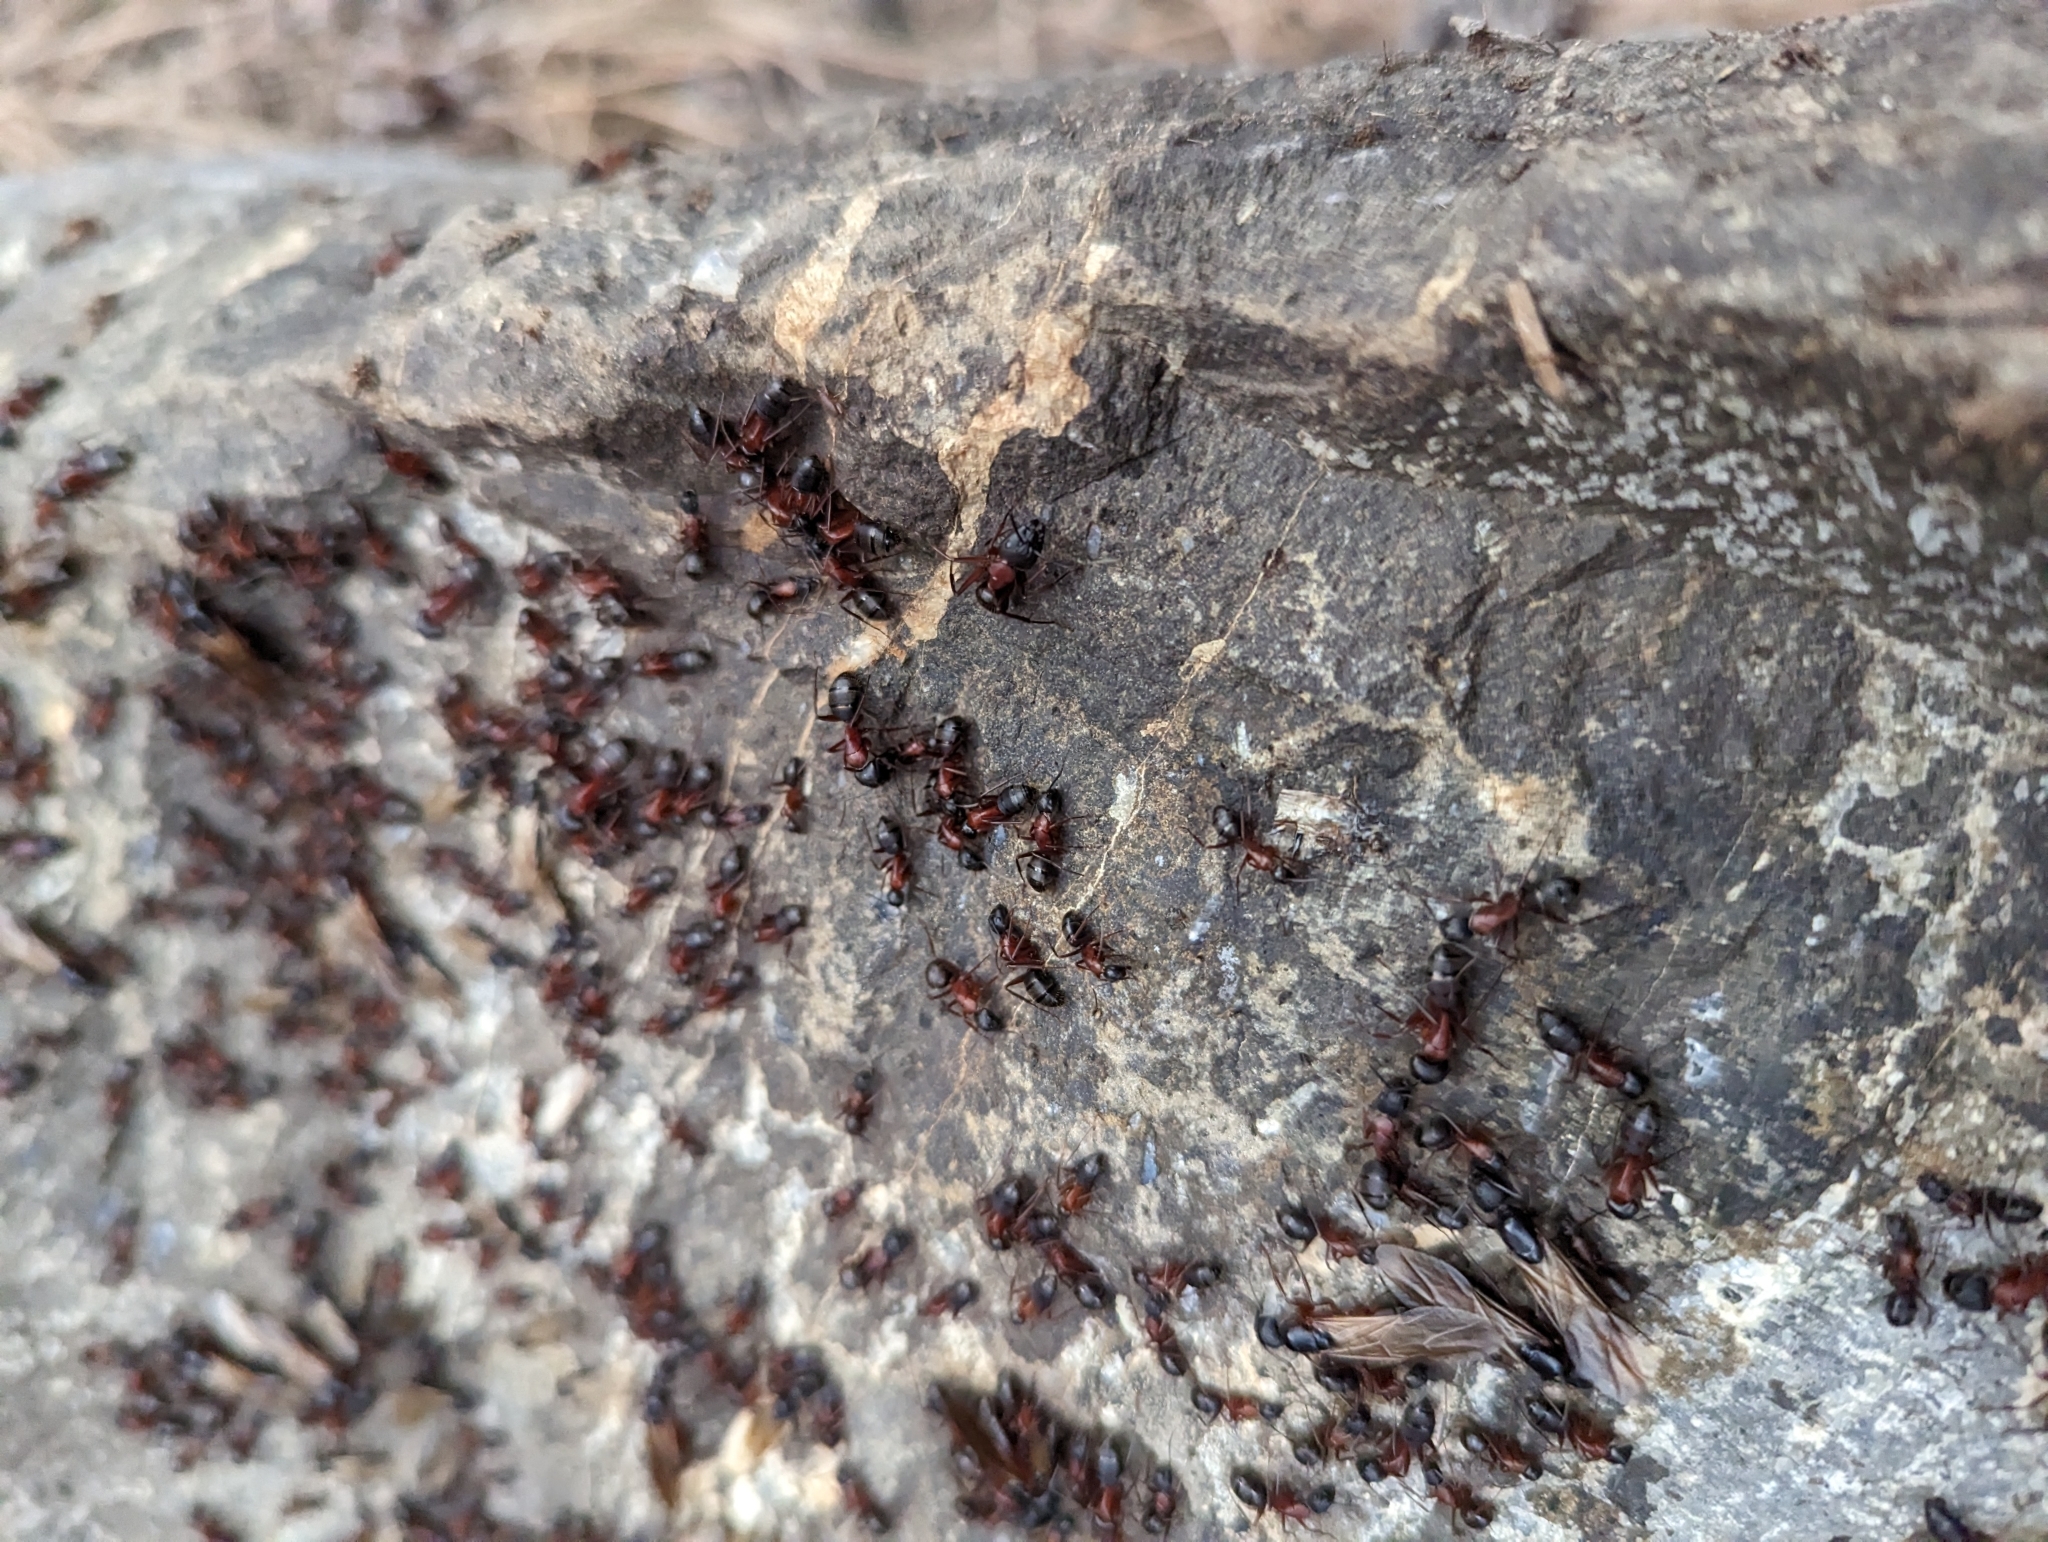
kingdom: Animalia
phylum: Arthropoda
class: Insecta
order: Hymenoptera
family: Formicidae
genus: Camponotus
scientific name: Camponotus vicinus
